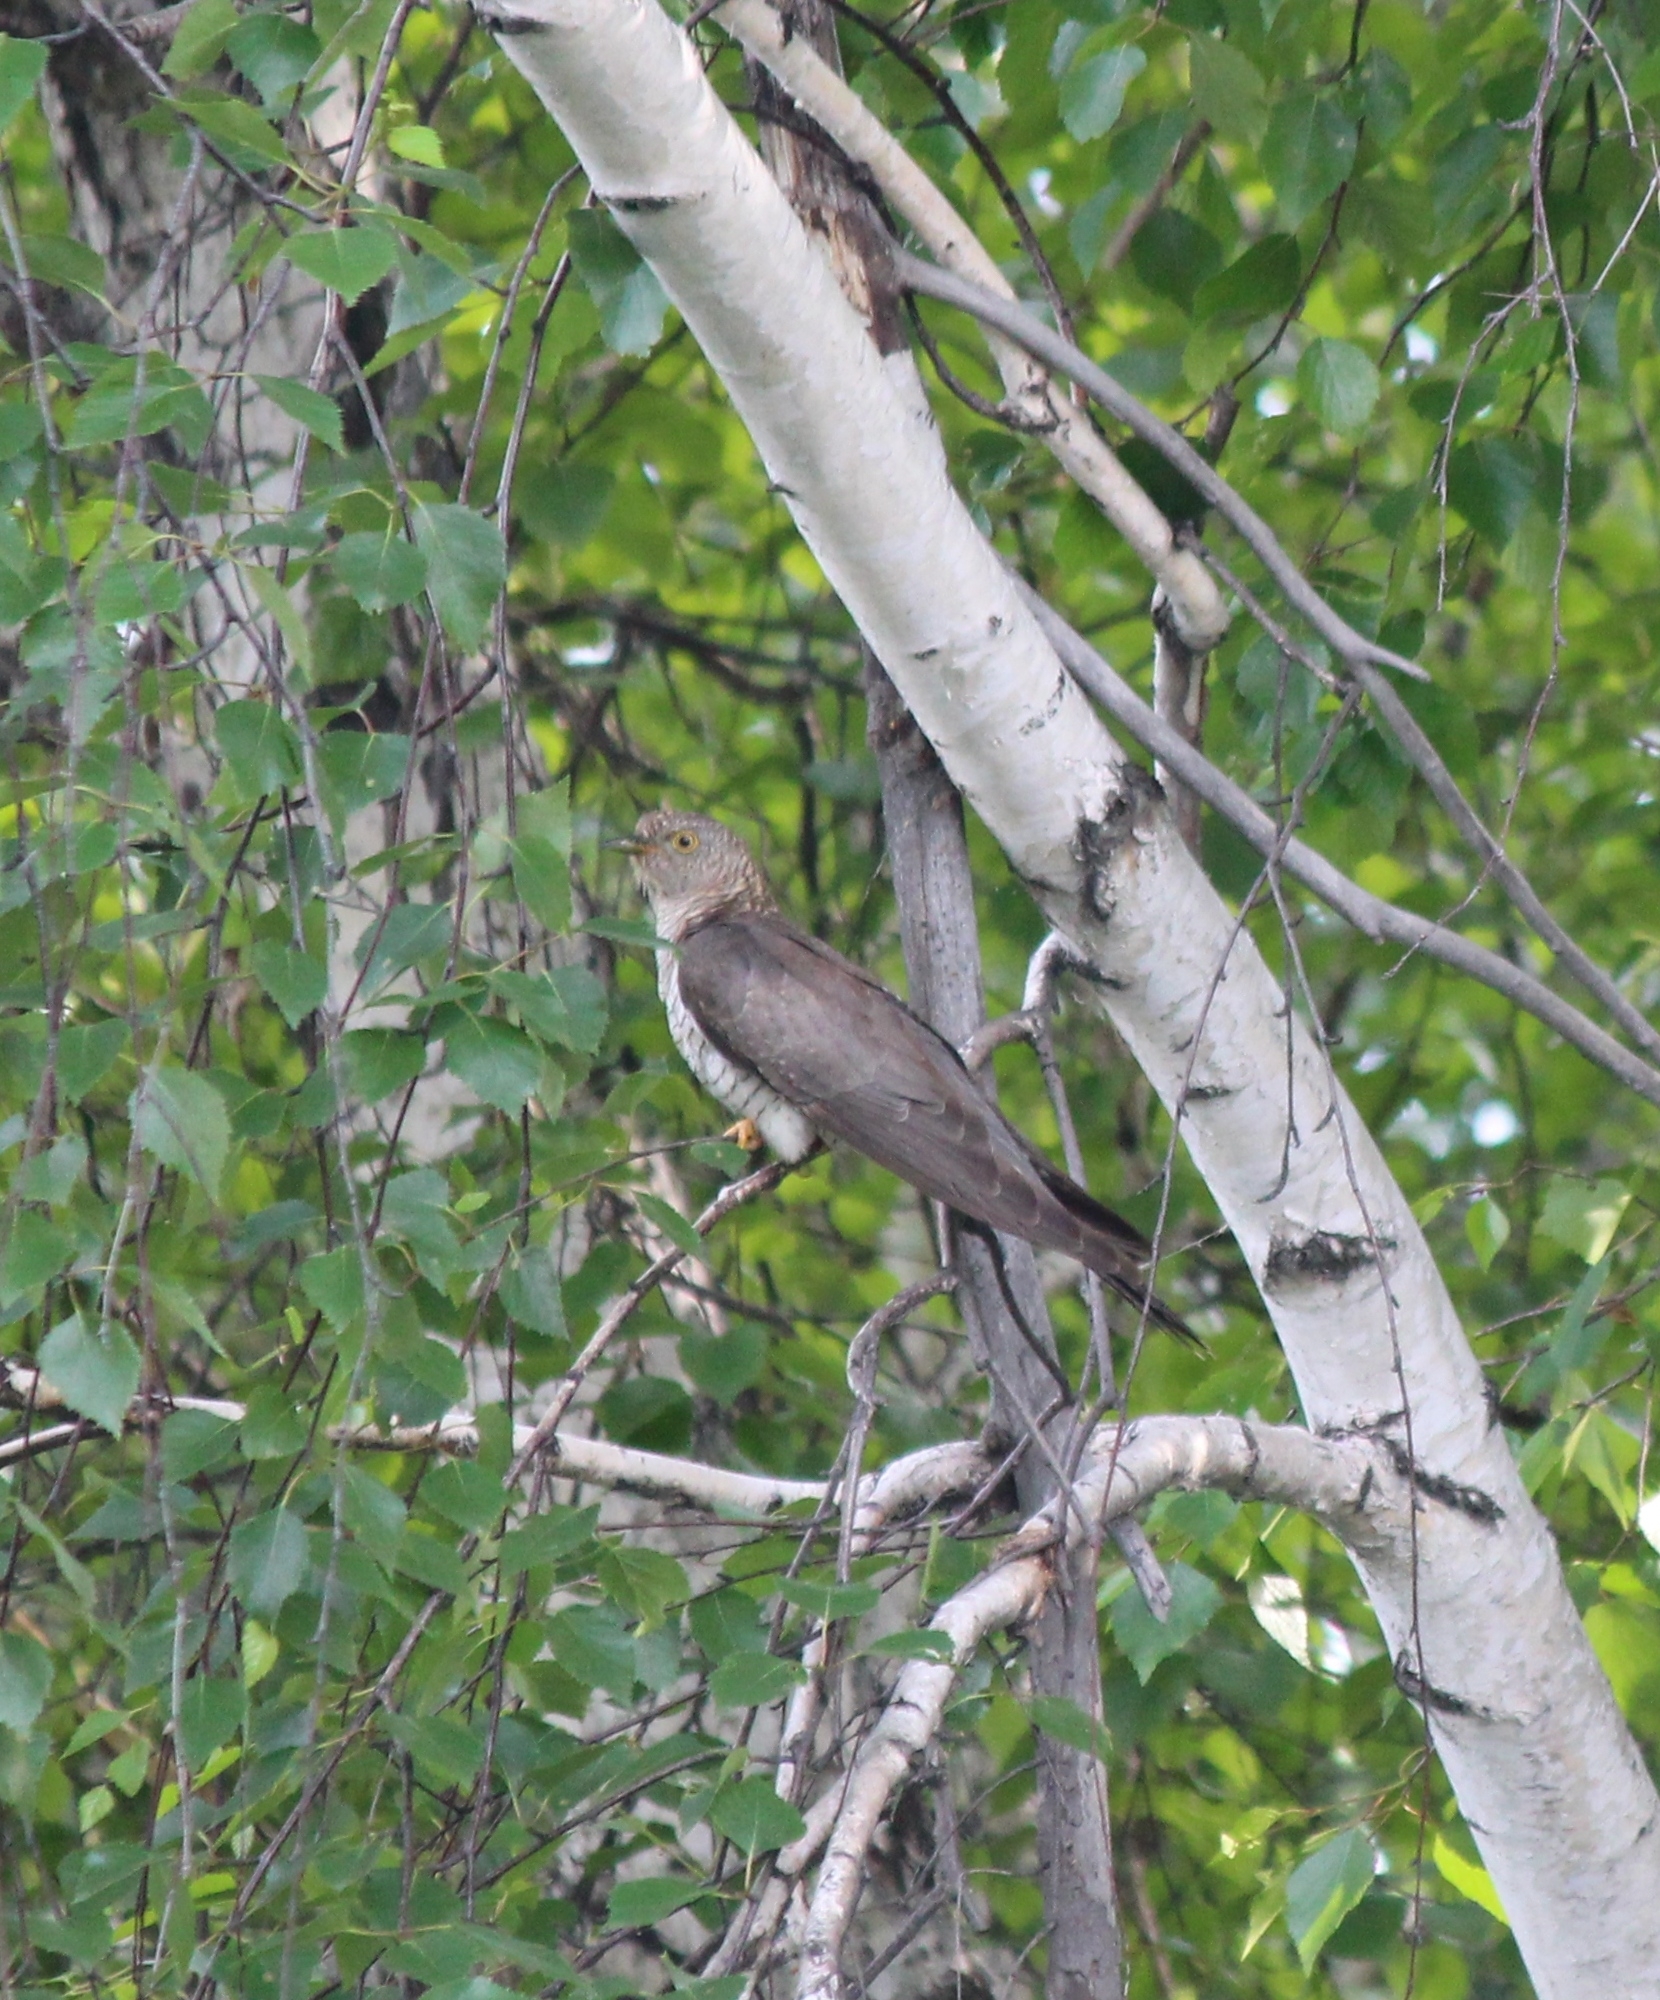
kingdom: Animalia
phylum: Chordata
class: Aves
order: Cuculiformes
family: Cuculidae
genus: Cuculus
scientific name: Cuculus canorus
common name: Common cuckoo
